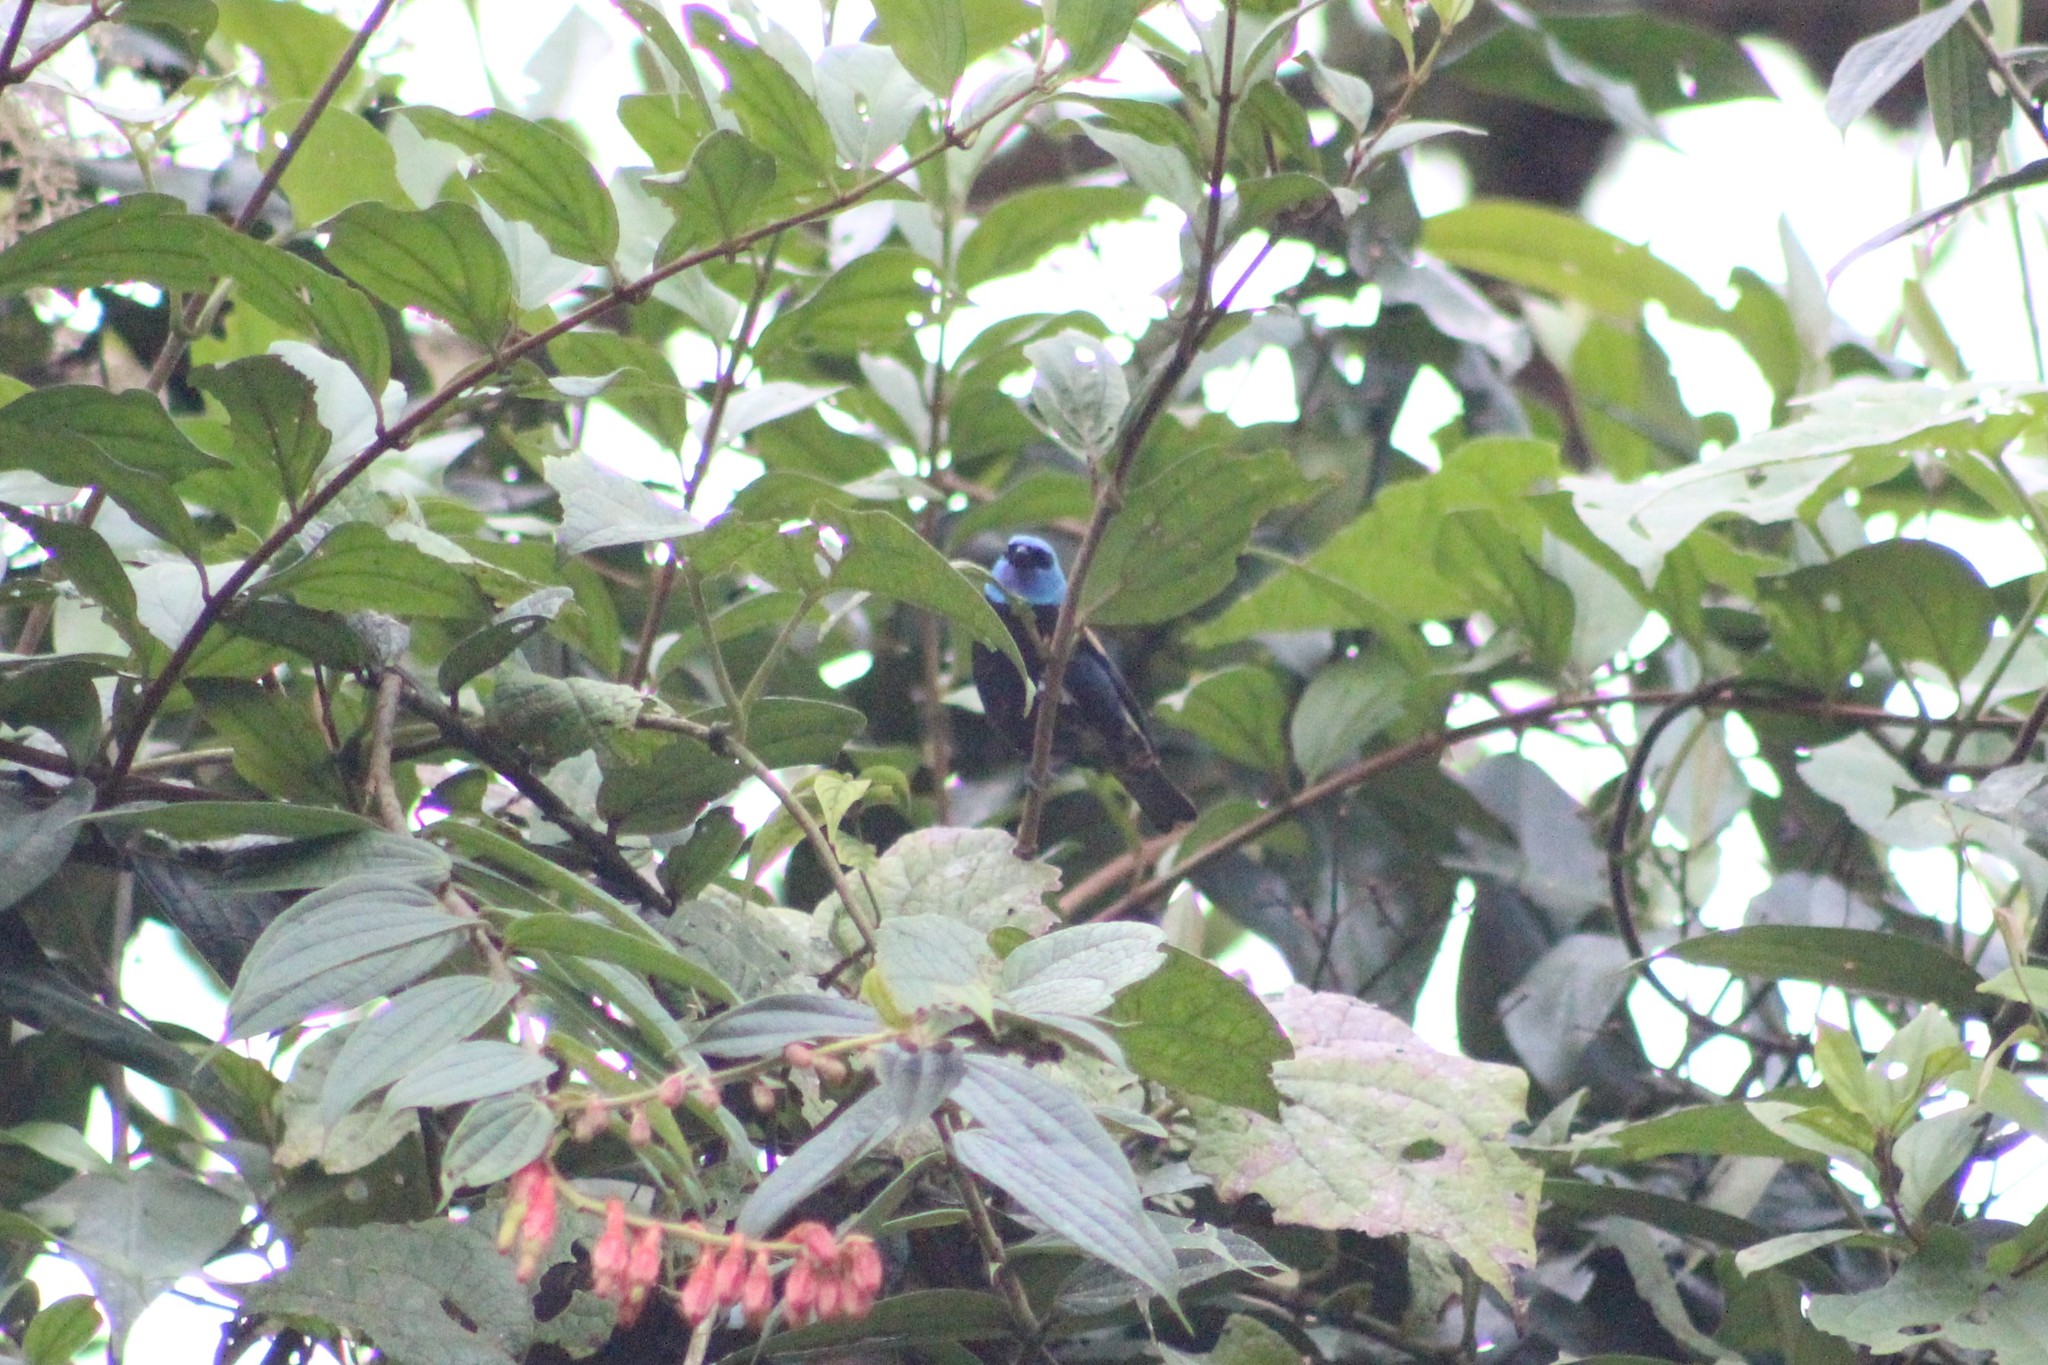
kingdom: Animalia
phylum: Chordata
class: Aves
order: Passeriformes
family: Thraupidae
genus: Stilpnia
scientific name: Stilpnia cyanicollis
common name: Blue-necked tanager
